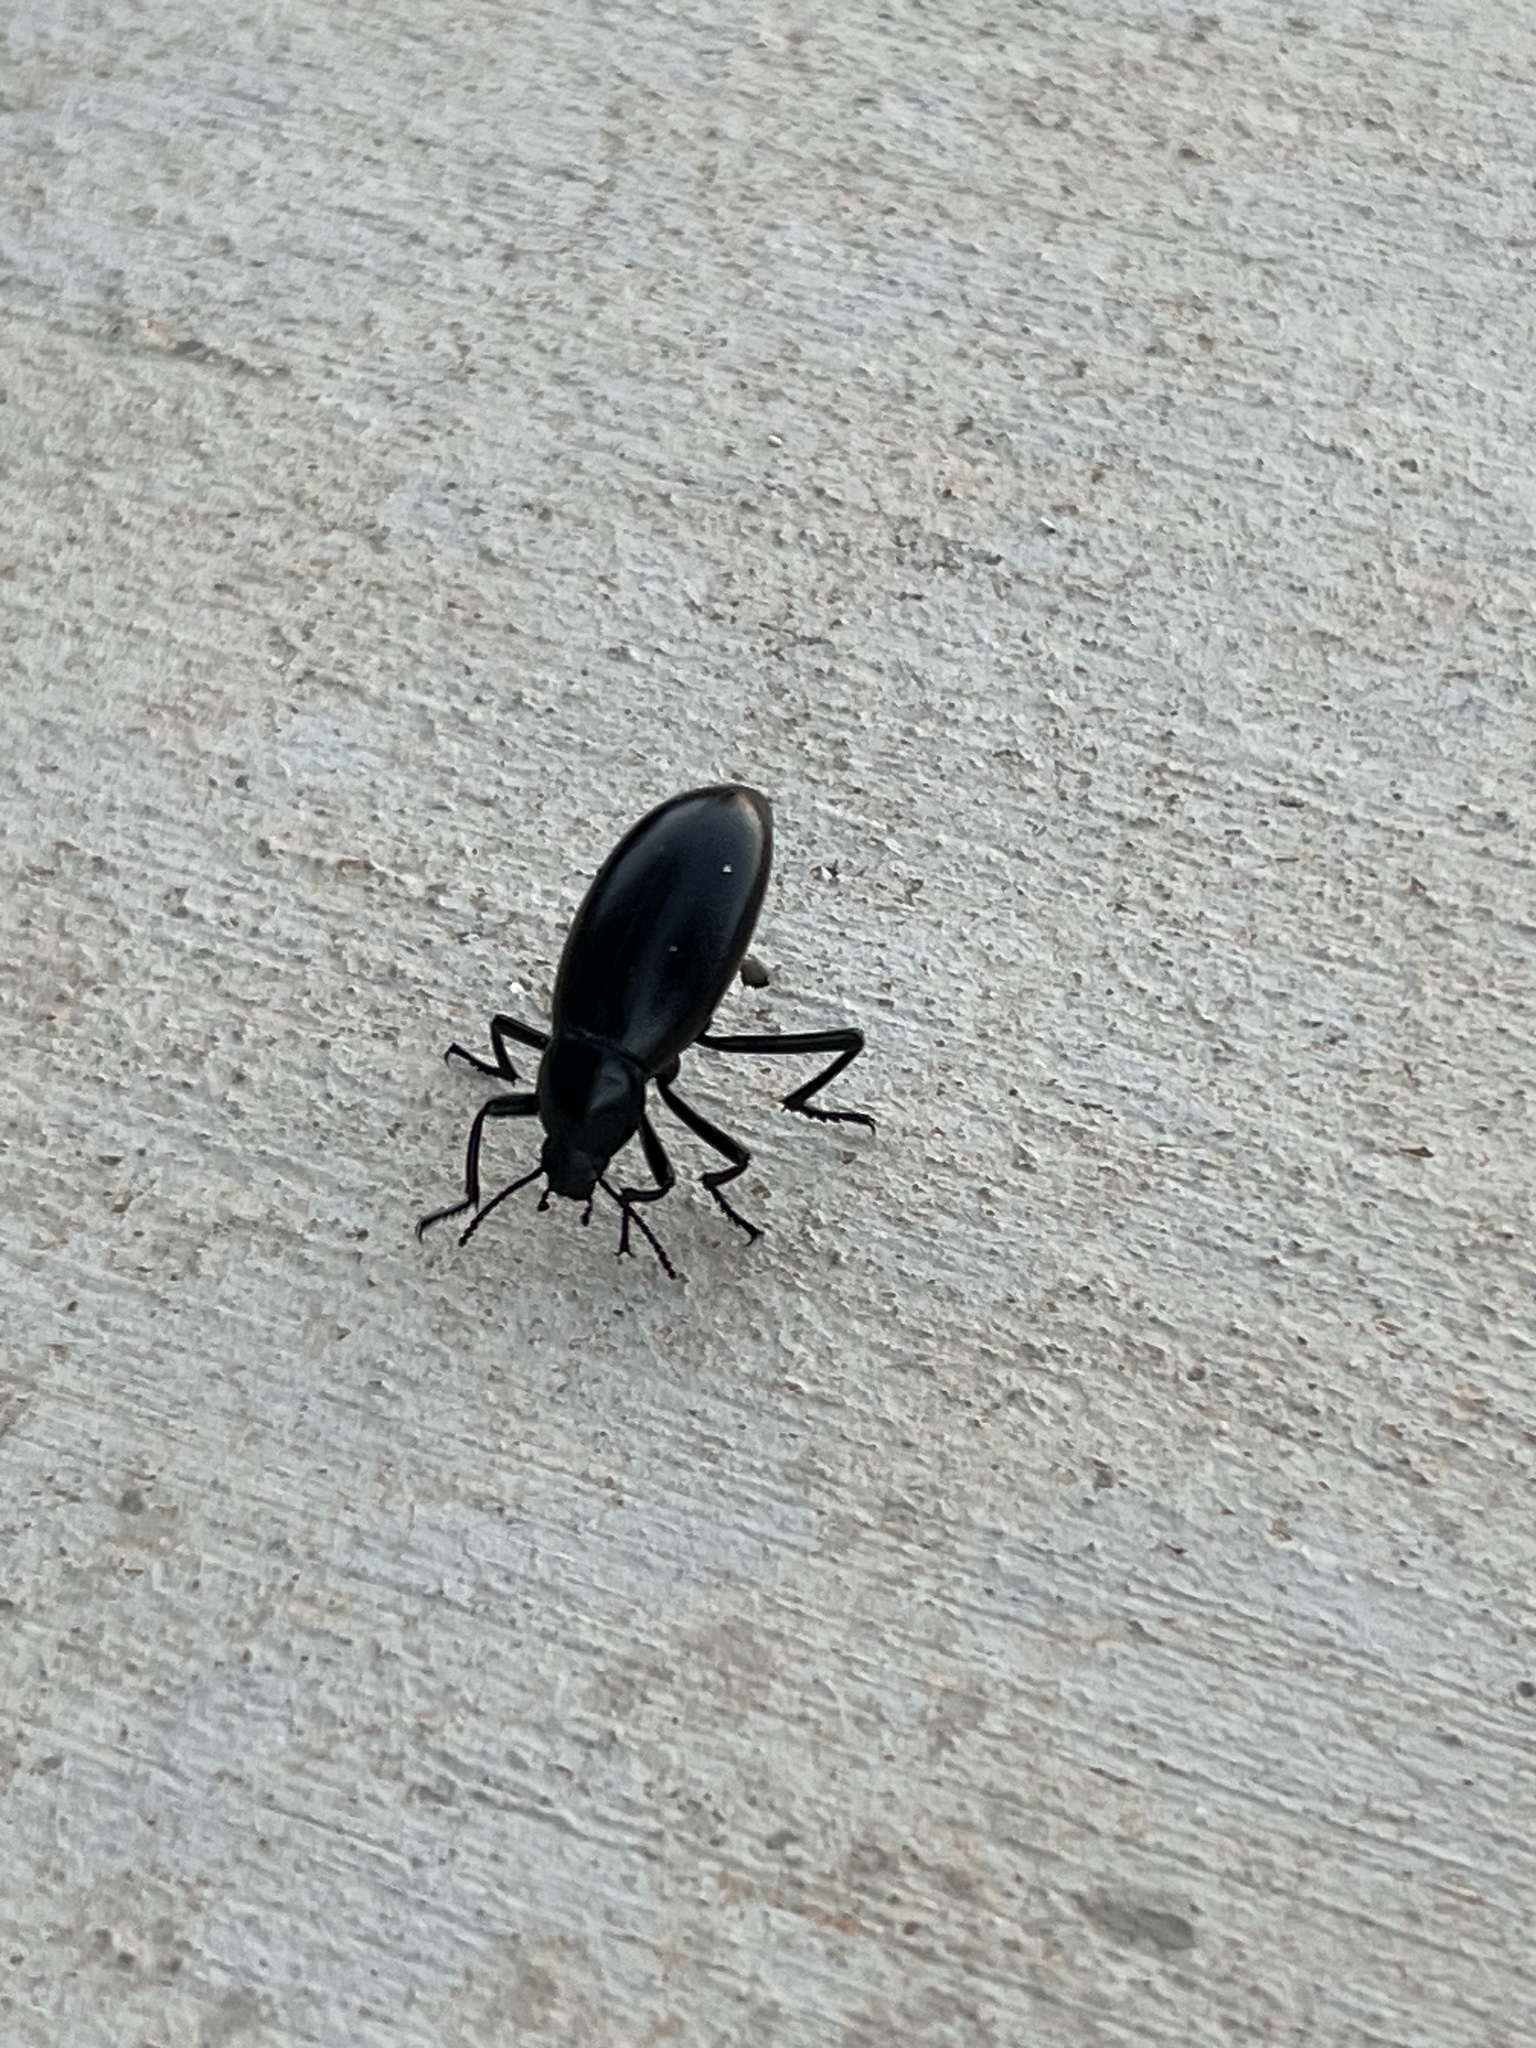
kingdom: Animalia
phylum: Arthropoda
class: Insecta
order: Coleoptera
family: Tenebrionidae
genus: Eleodes
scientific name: Eleodes longicollis
